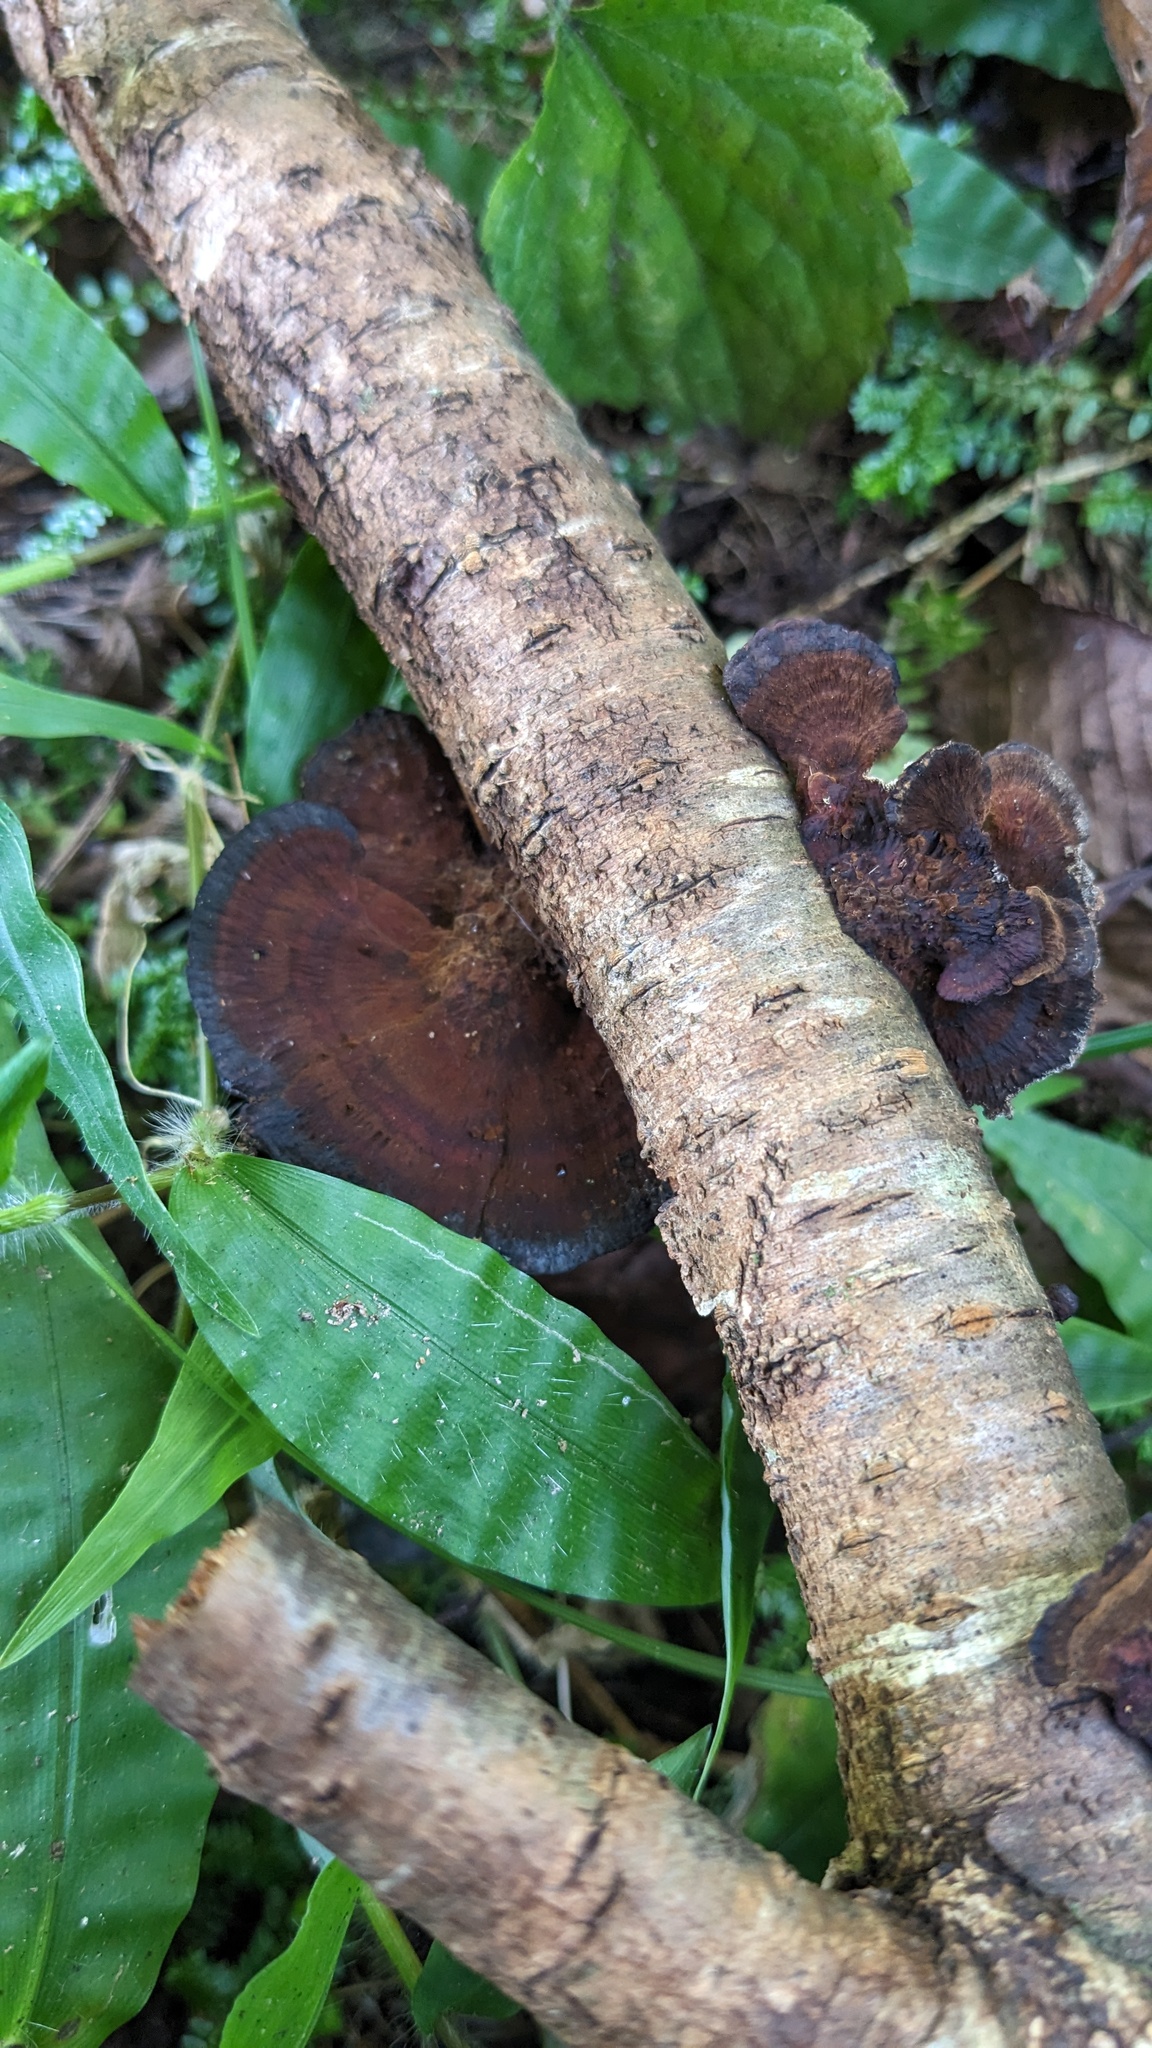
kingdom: Fungi
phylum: Basidiomycota
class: Agaricomycetes
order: Polyporales
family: Polyporaceae
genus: Daedaleopsis
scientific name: Daedaleopsis tricolor
